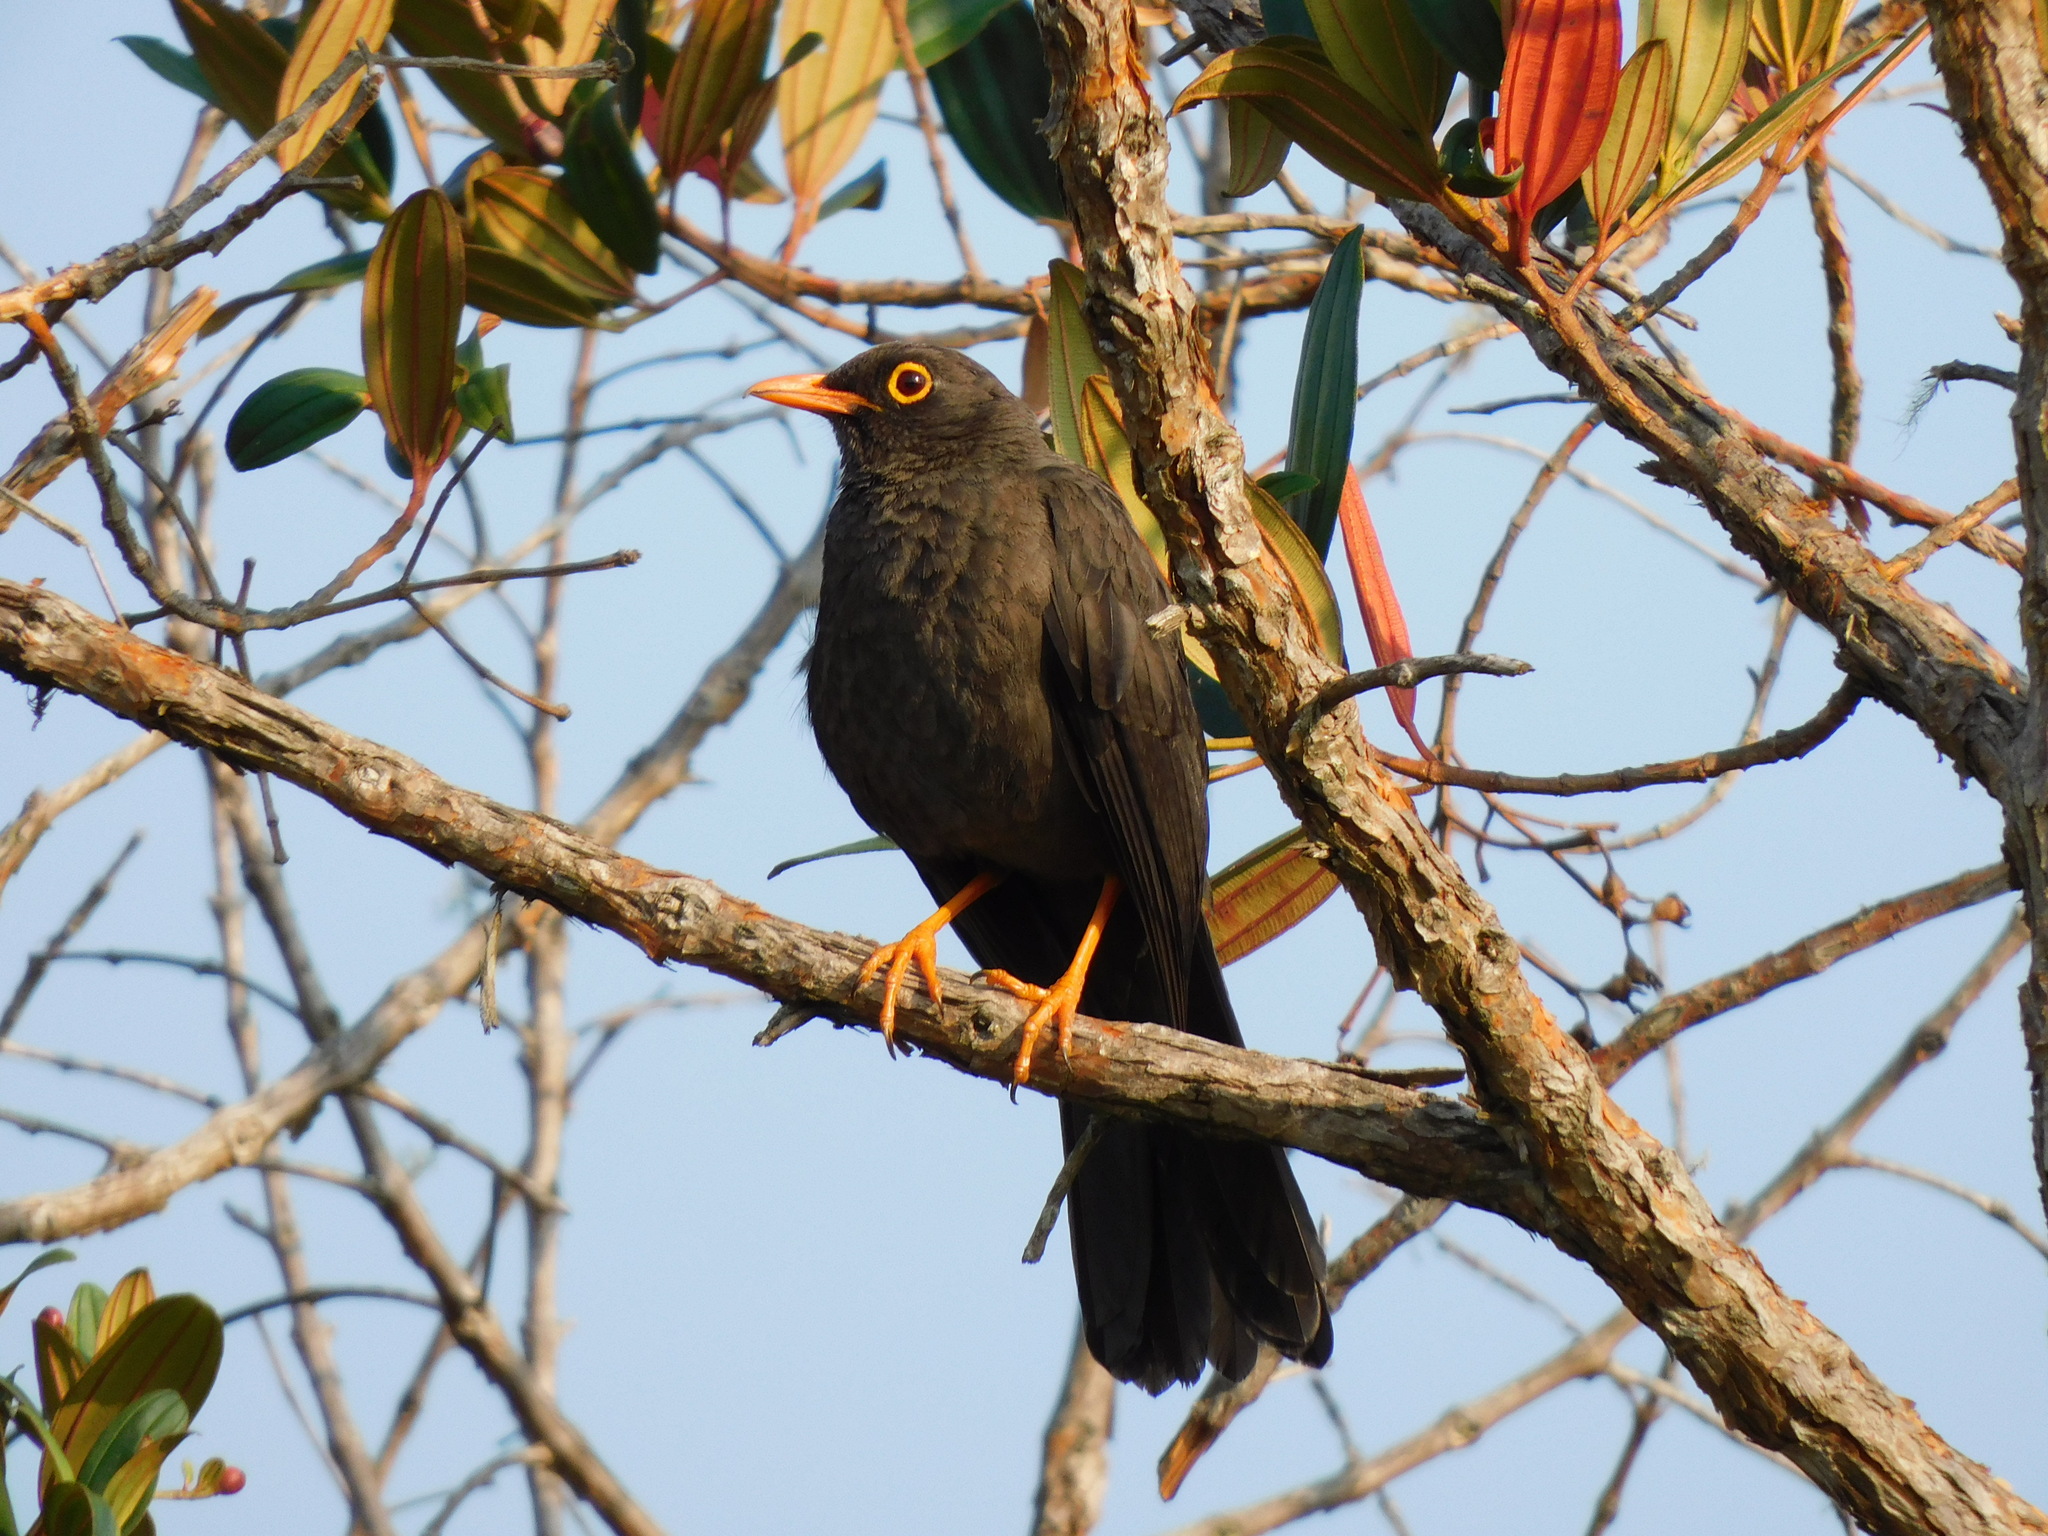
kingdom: Animalia
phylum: Chordata
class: Aves
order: Passeriformes
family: Turdidae
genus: Turdus
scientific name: Turdus fuscater
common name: Great thrush
